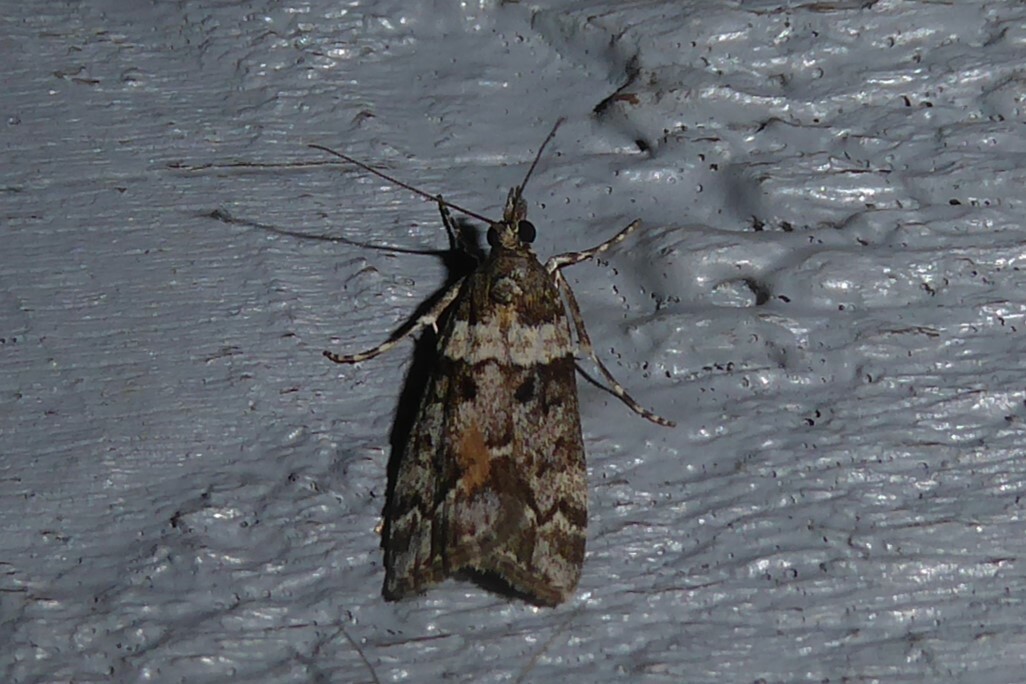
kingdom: Animalia
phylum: Arthropoda
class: Insecta
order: Lepidoptera
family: Crambidae
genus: Eudonia
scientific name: Eudonia submarginalis
